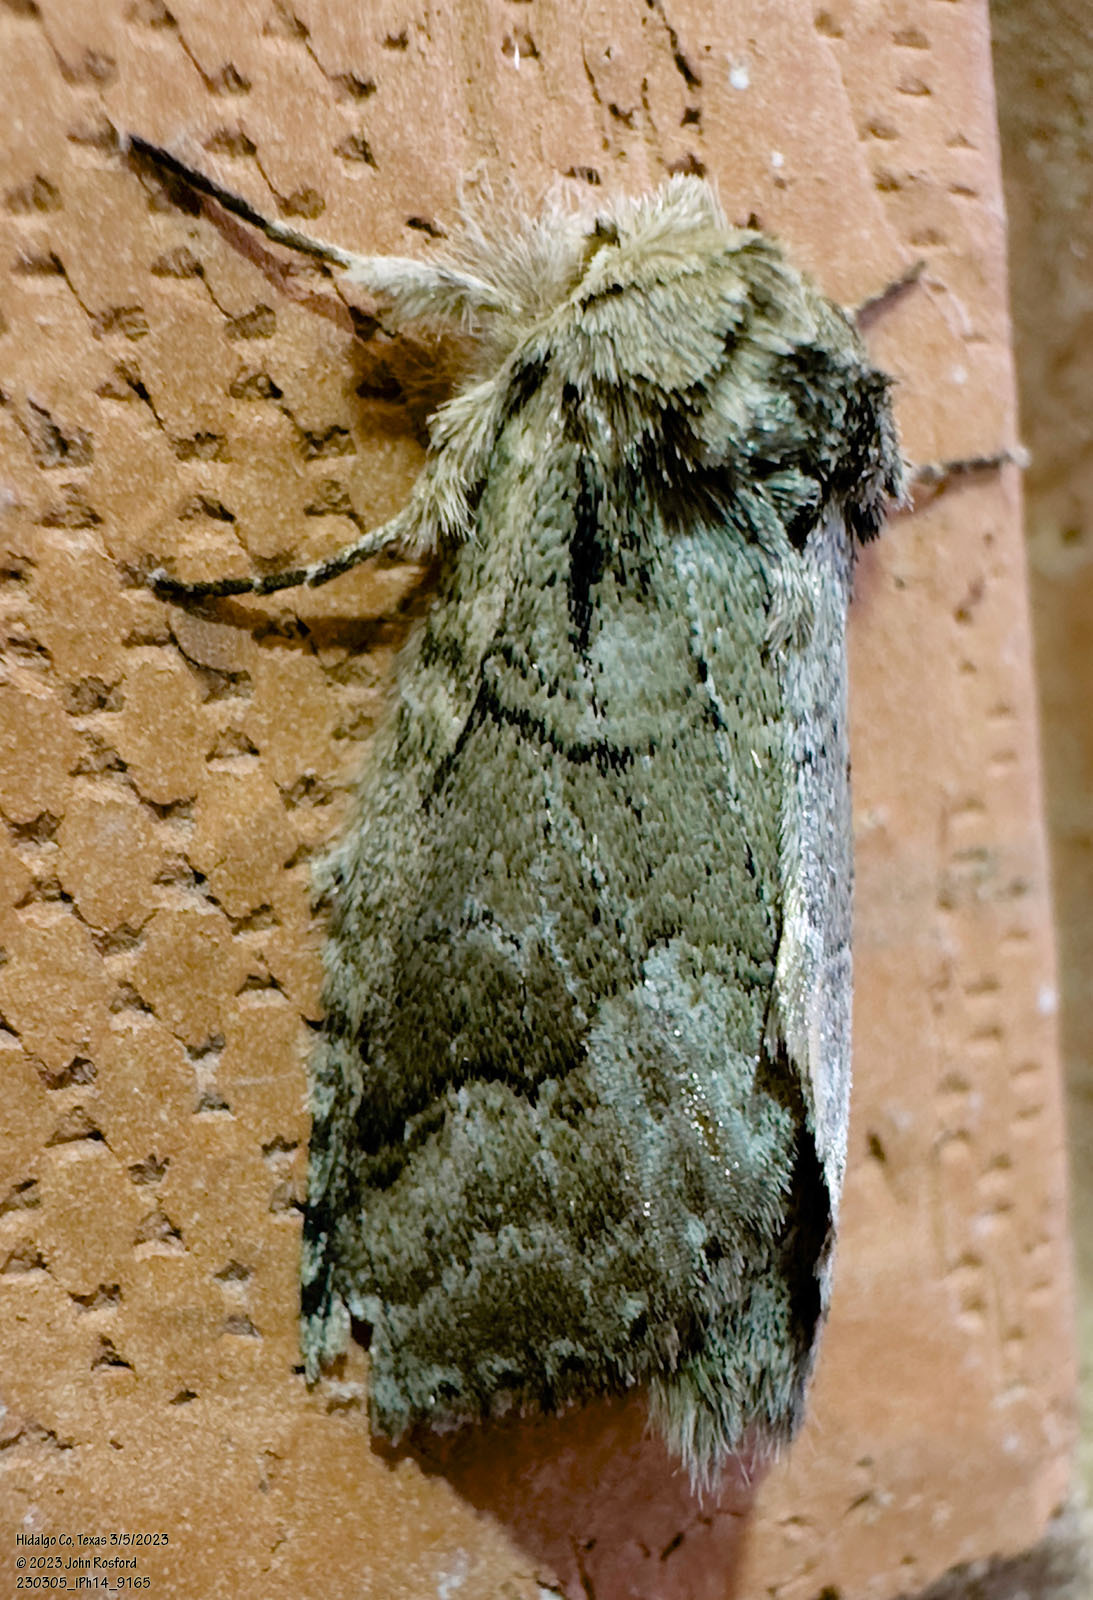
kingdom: Animalia
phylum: Arthropoda
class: Insecta
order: Lepidoptera
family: Notodontidae
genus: Lochmaeus
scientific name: Lochmaeus bilineata
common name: Double-lined prominent
